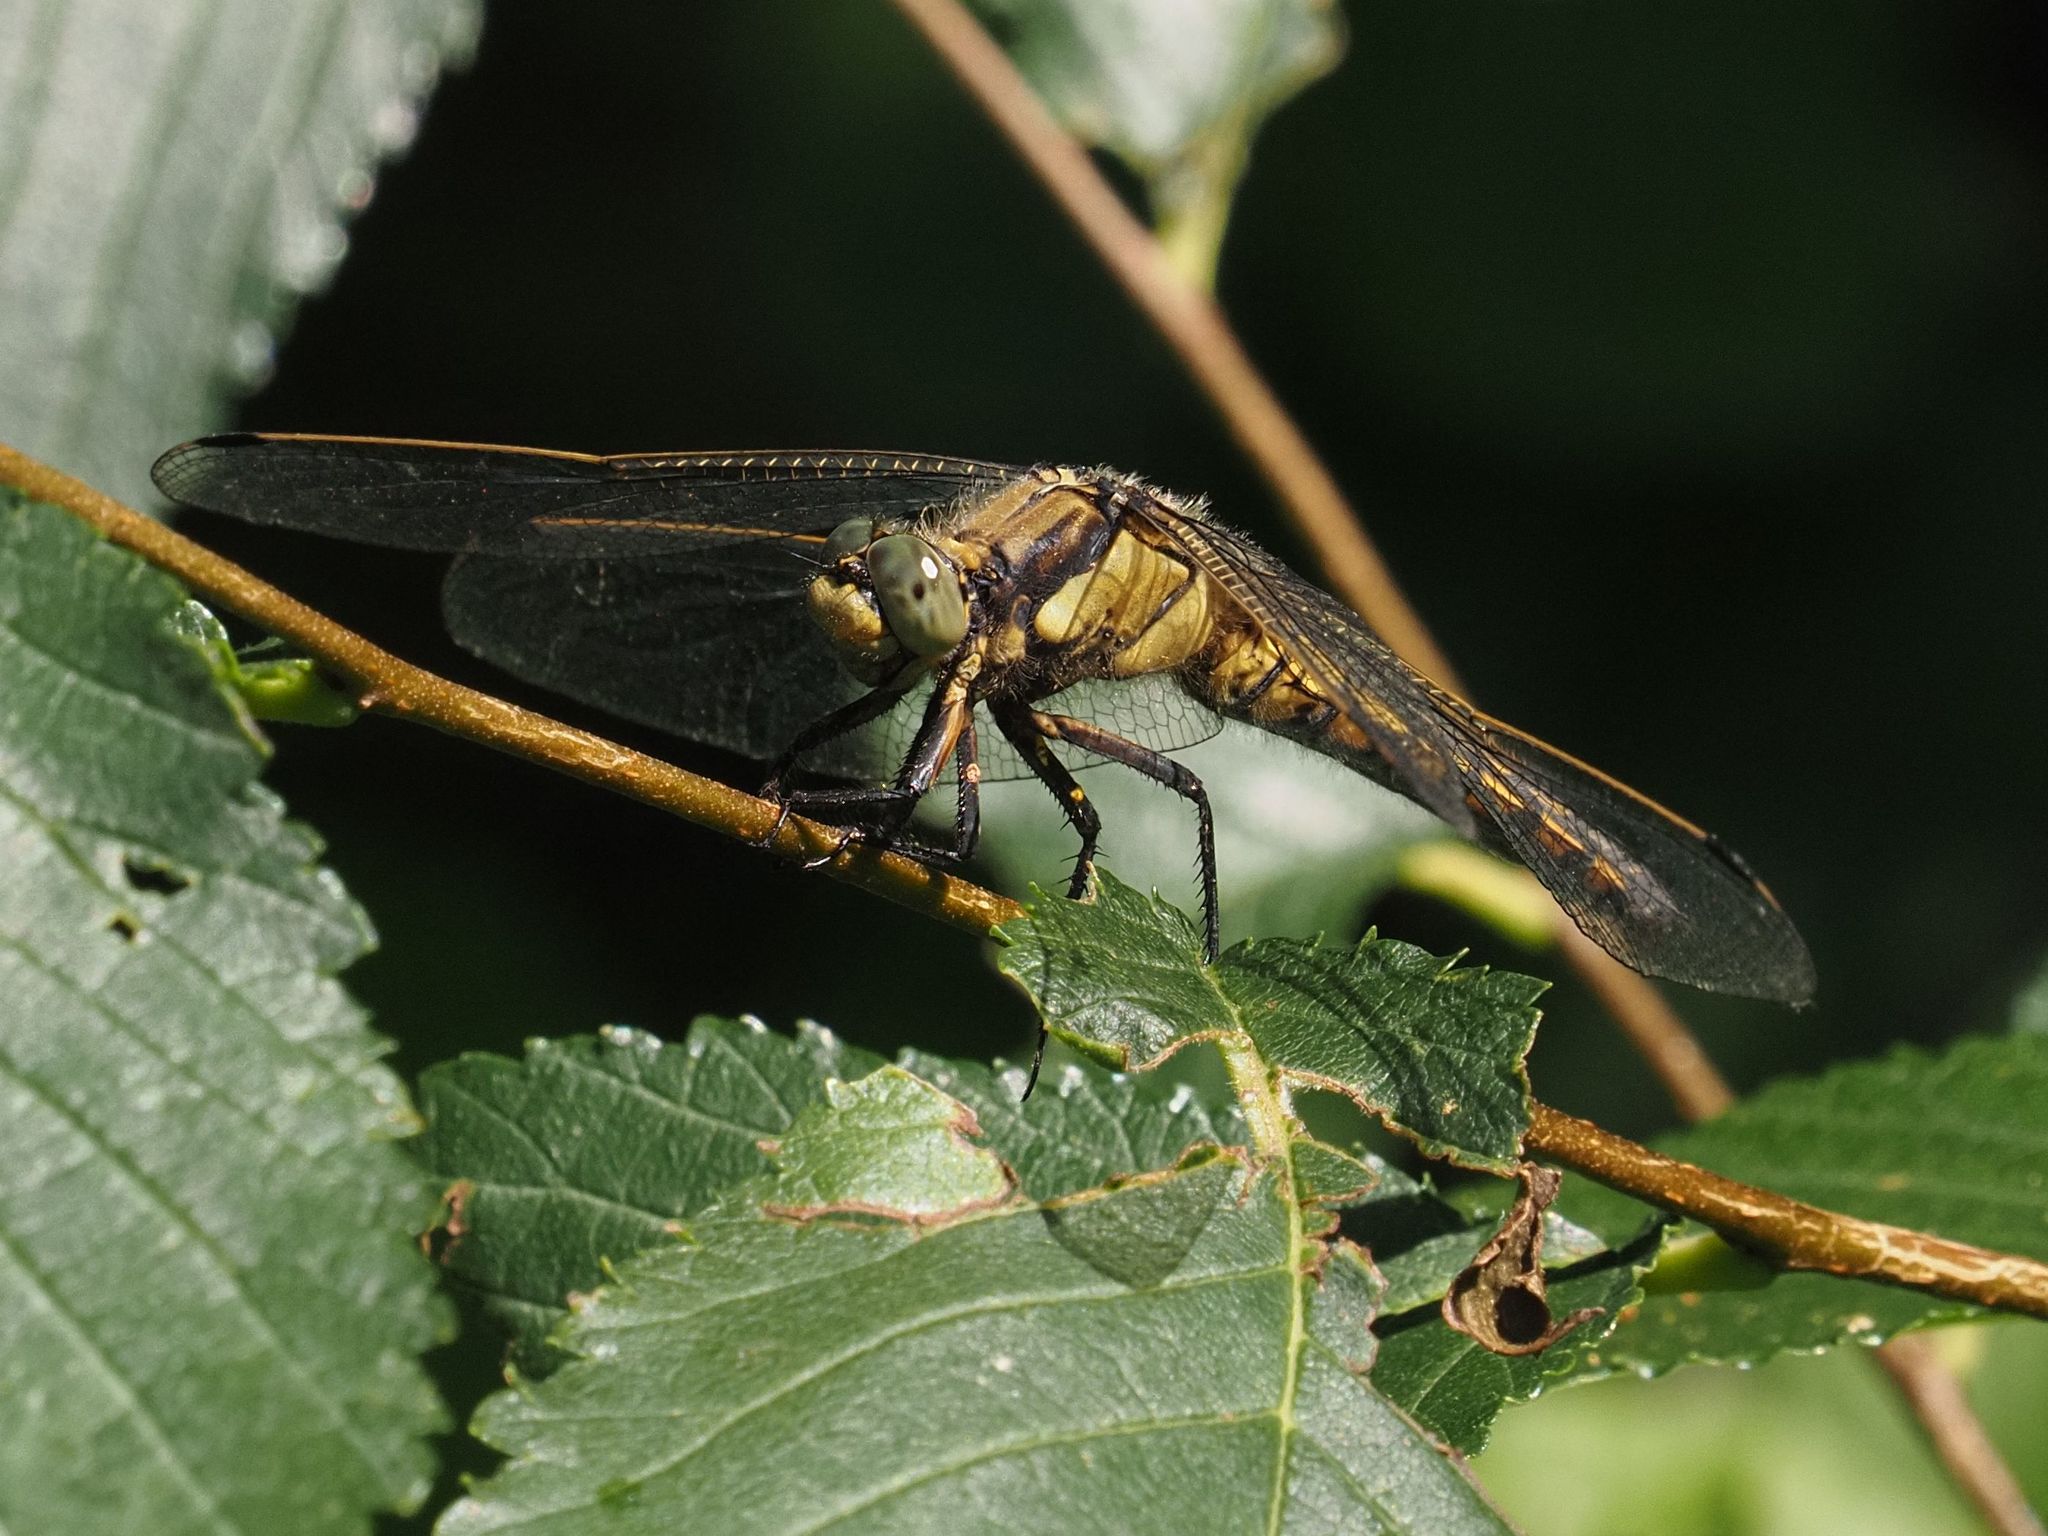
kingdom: Animalia
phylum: Arthropoda
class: Insecta
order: Odonata
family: Libellulidae
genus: Orthetrum
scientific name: Orthetrum cancellatum
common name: Black-tailed skimmer
